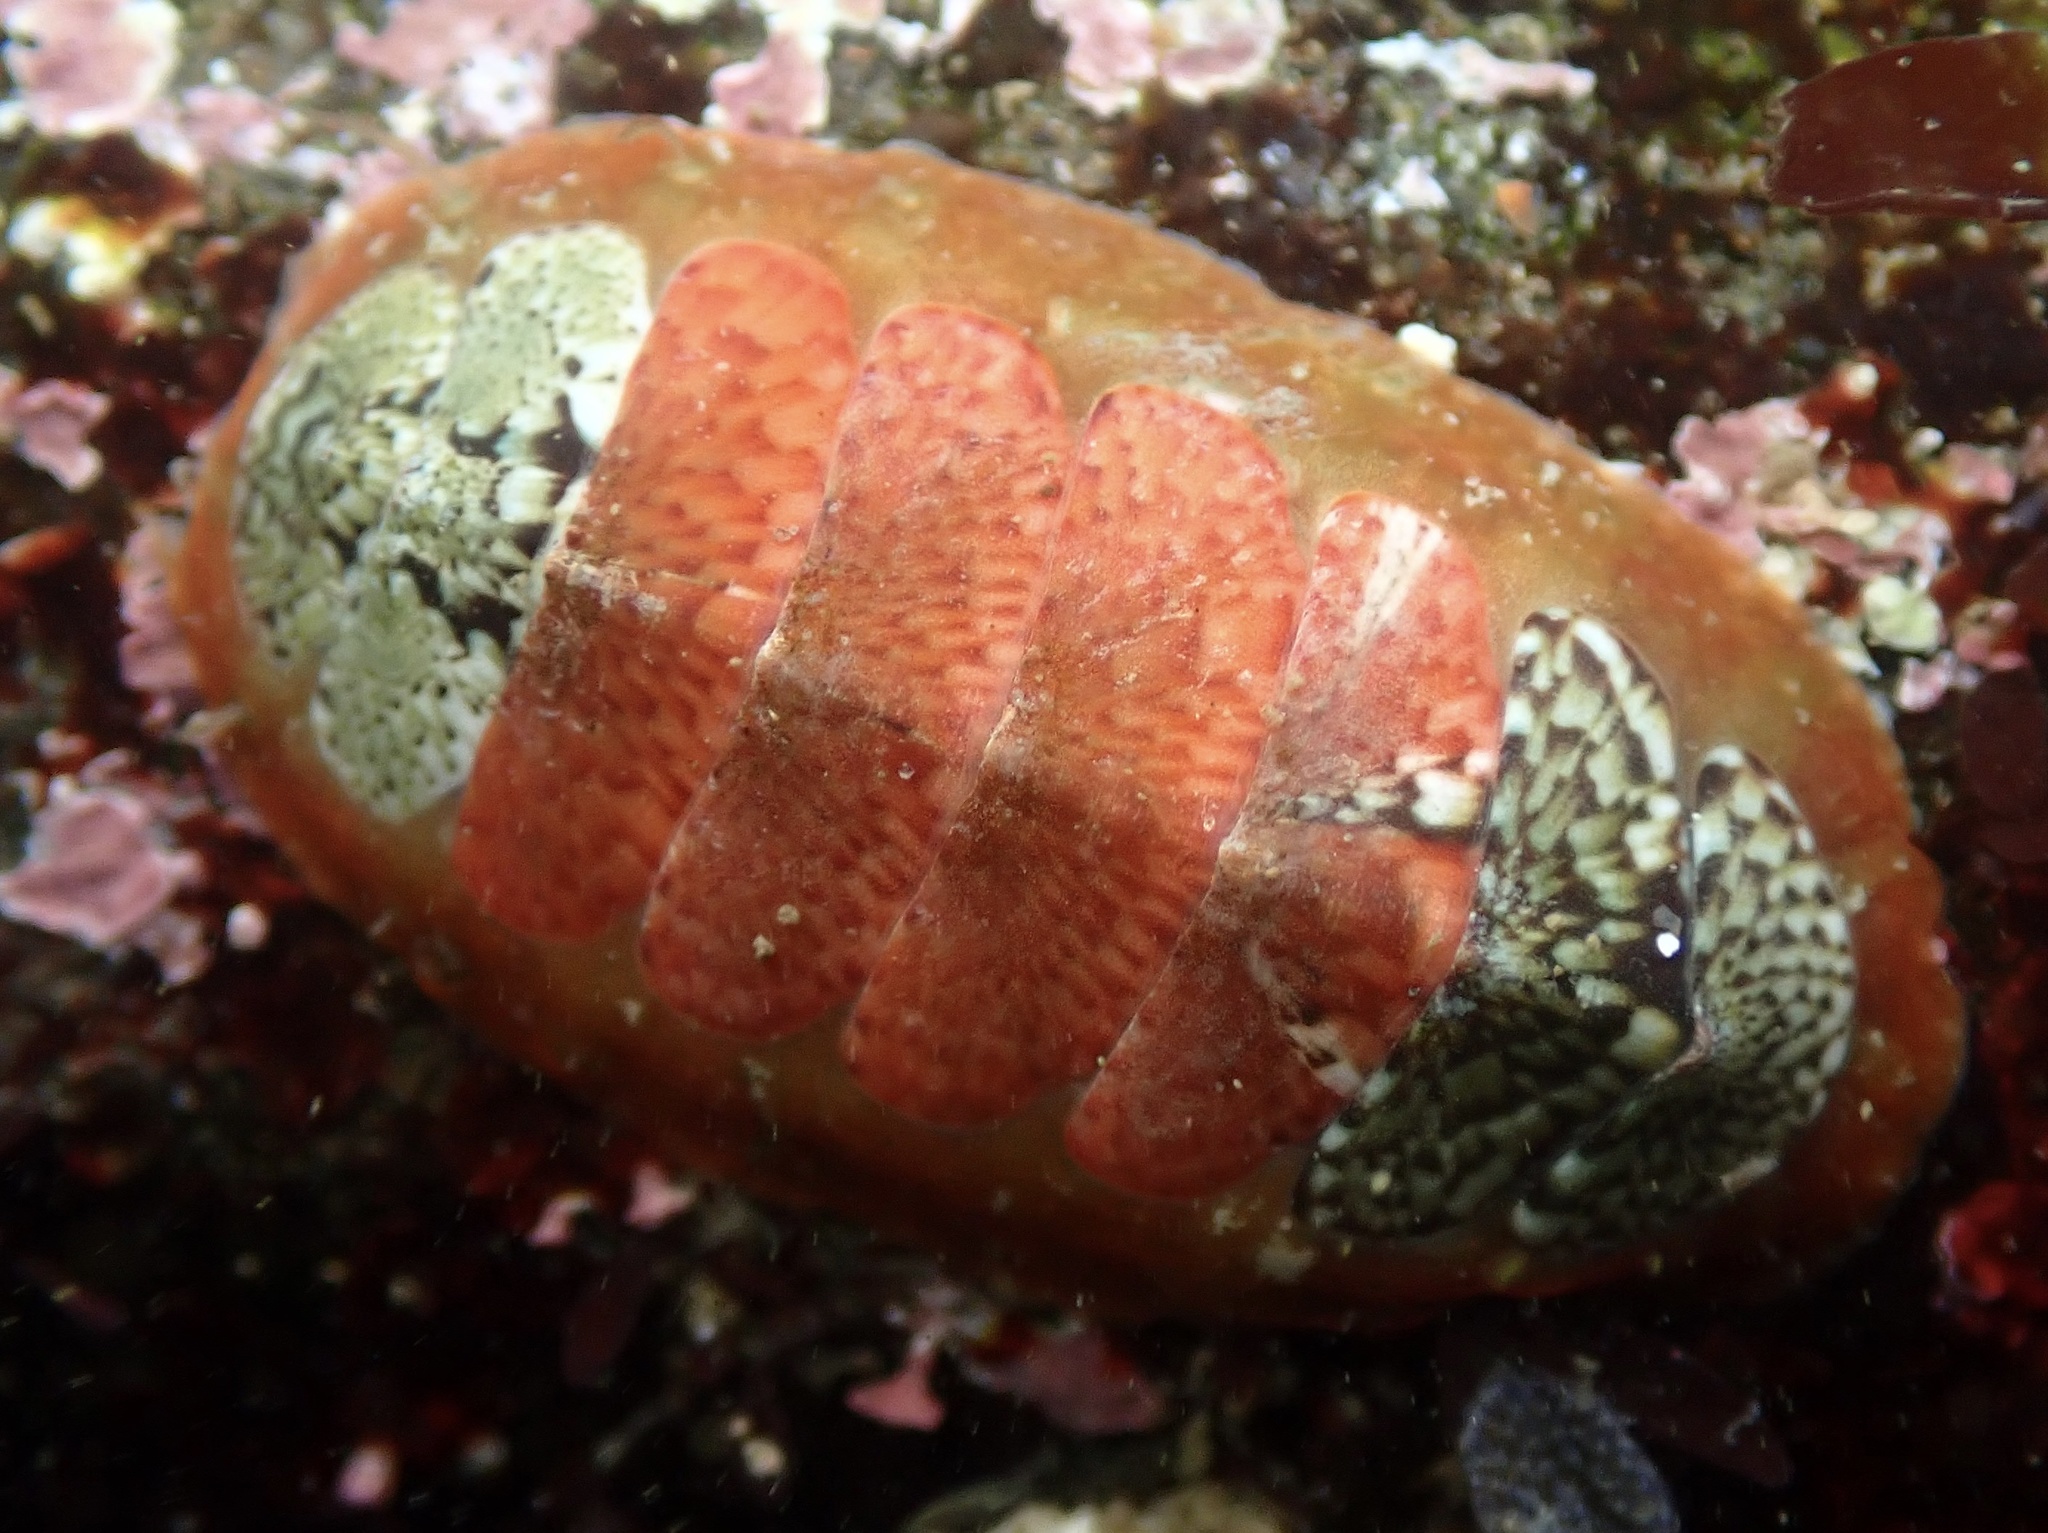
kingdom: Animalia
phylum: Mollusca
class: Polyplacophora
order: Chitonida
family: Mopaliidae
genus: Dendrochiton
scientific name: Dendrochiton flectens
